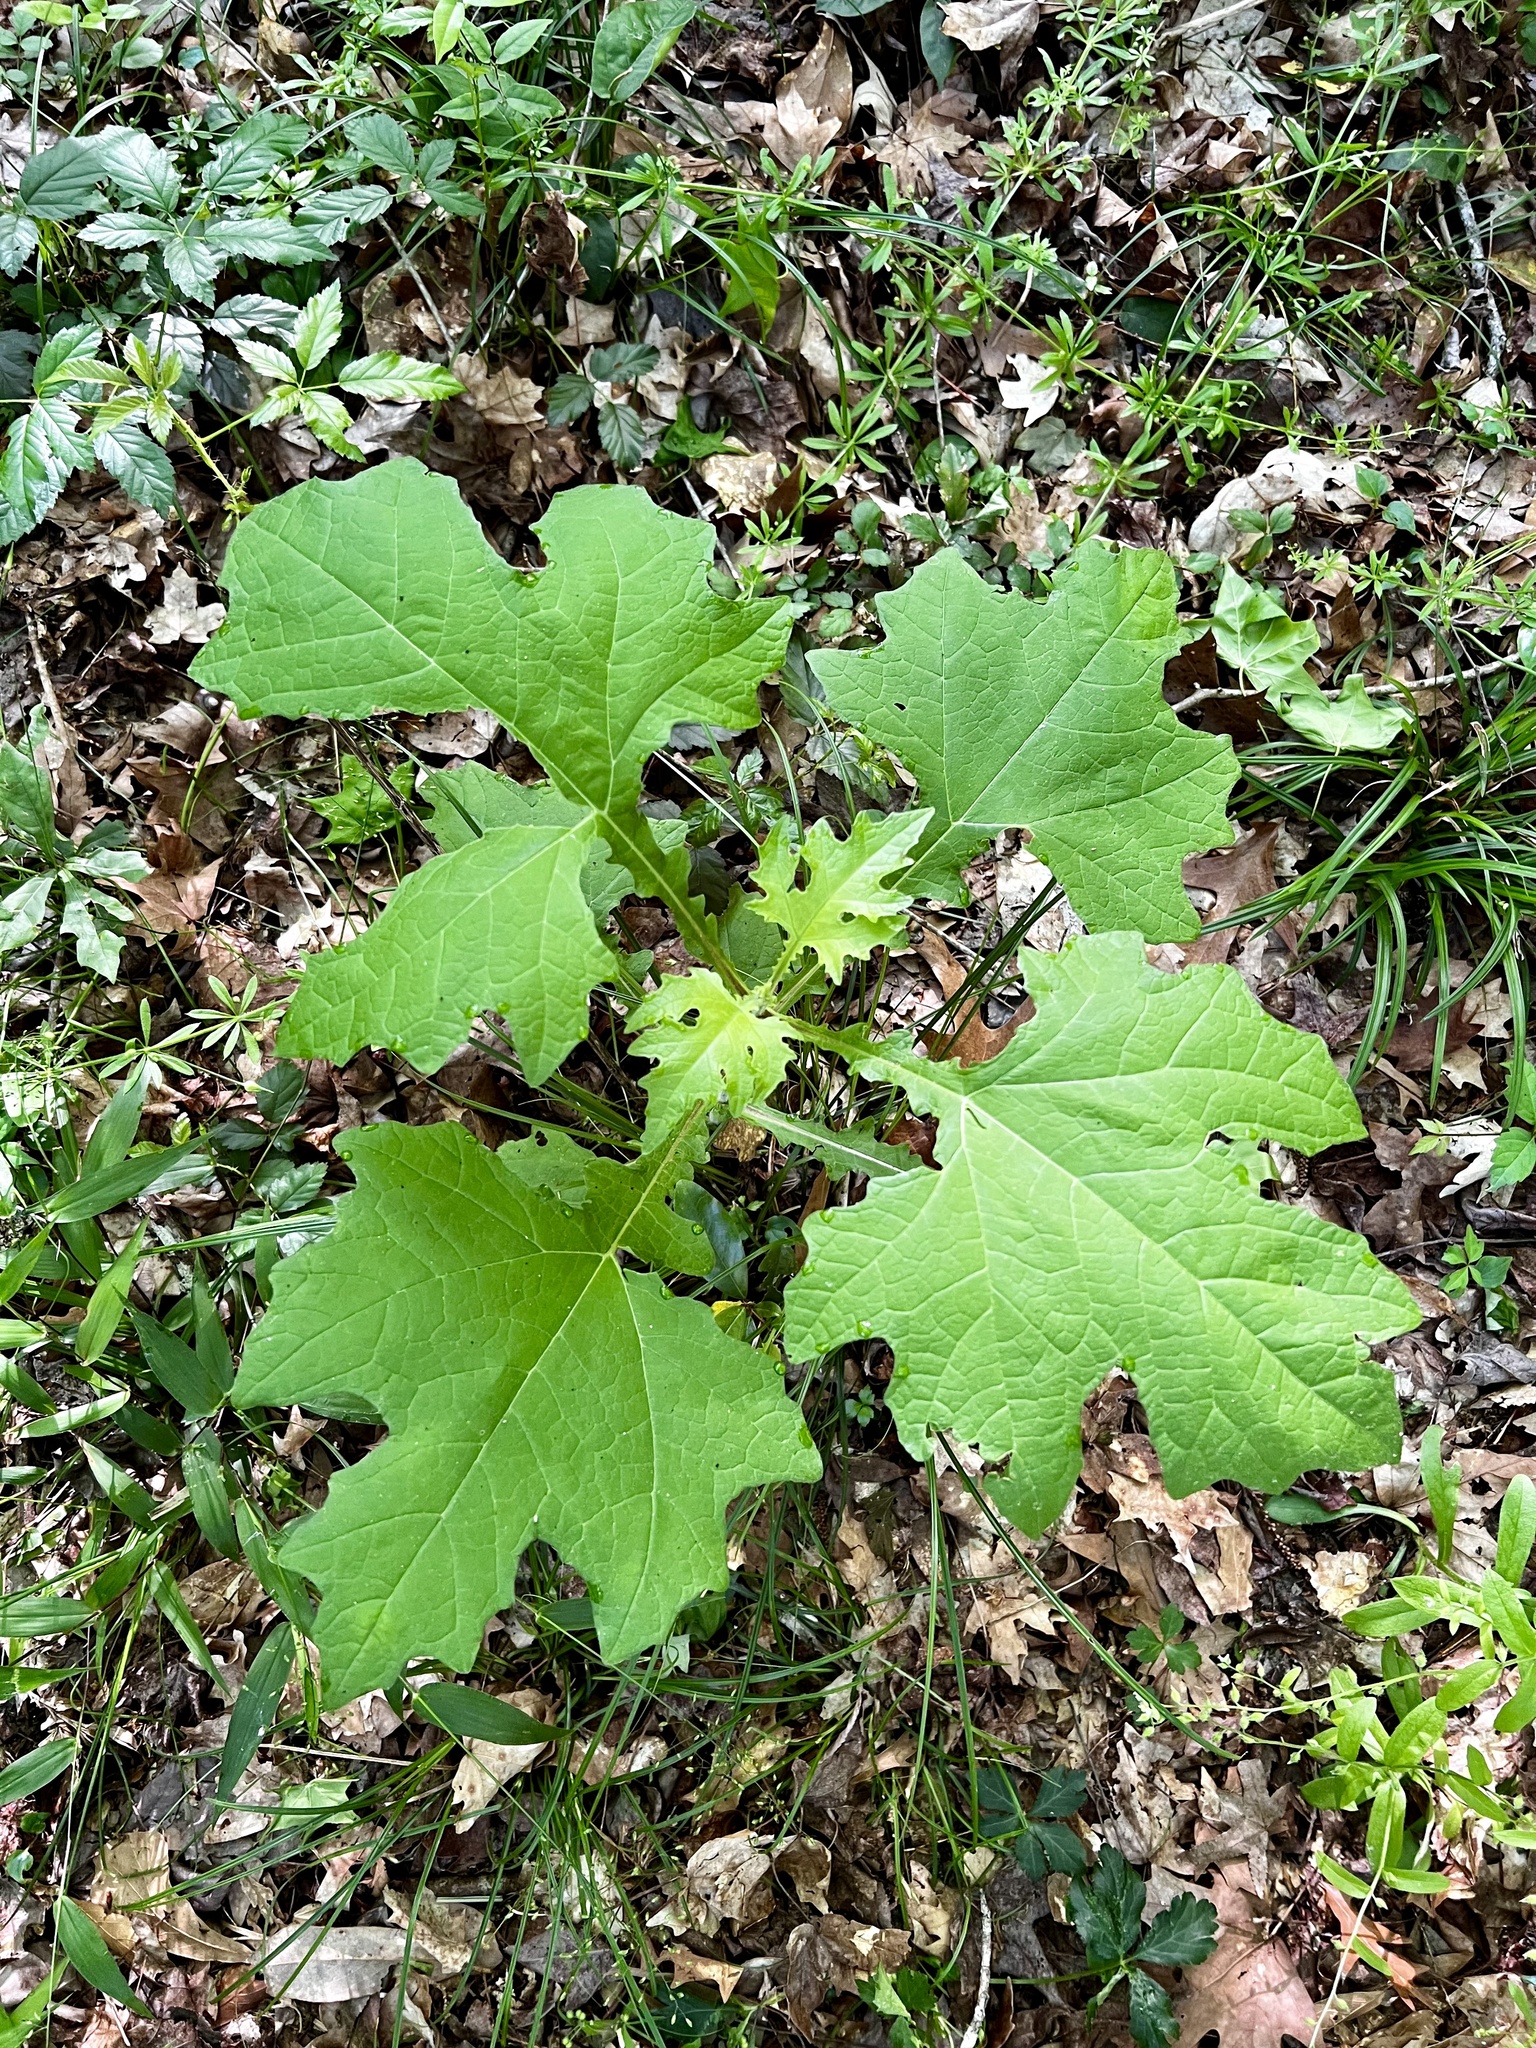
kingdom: Plantae
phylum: Tracheophyta
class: Magnoliopsida
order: Asterales
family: Asteraceae
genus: Smallanthus
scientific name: Smallanthus uvedalia
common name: Bear's-foot
